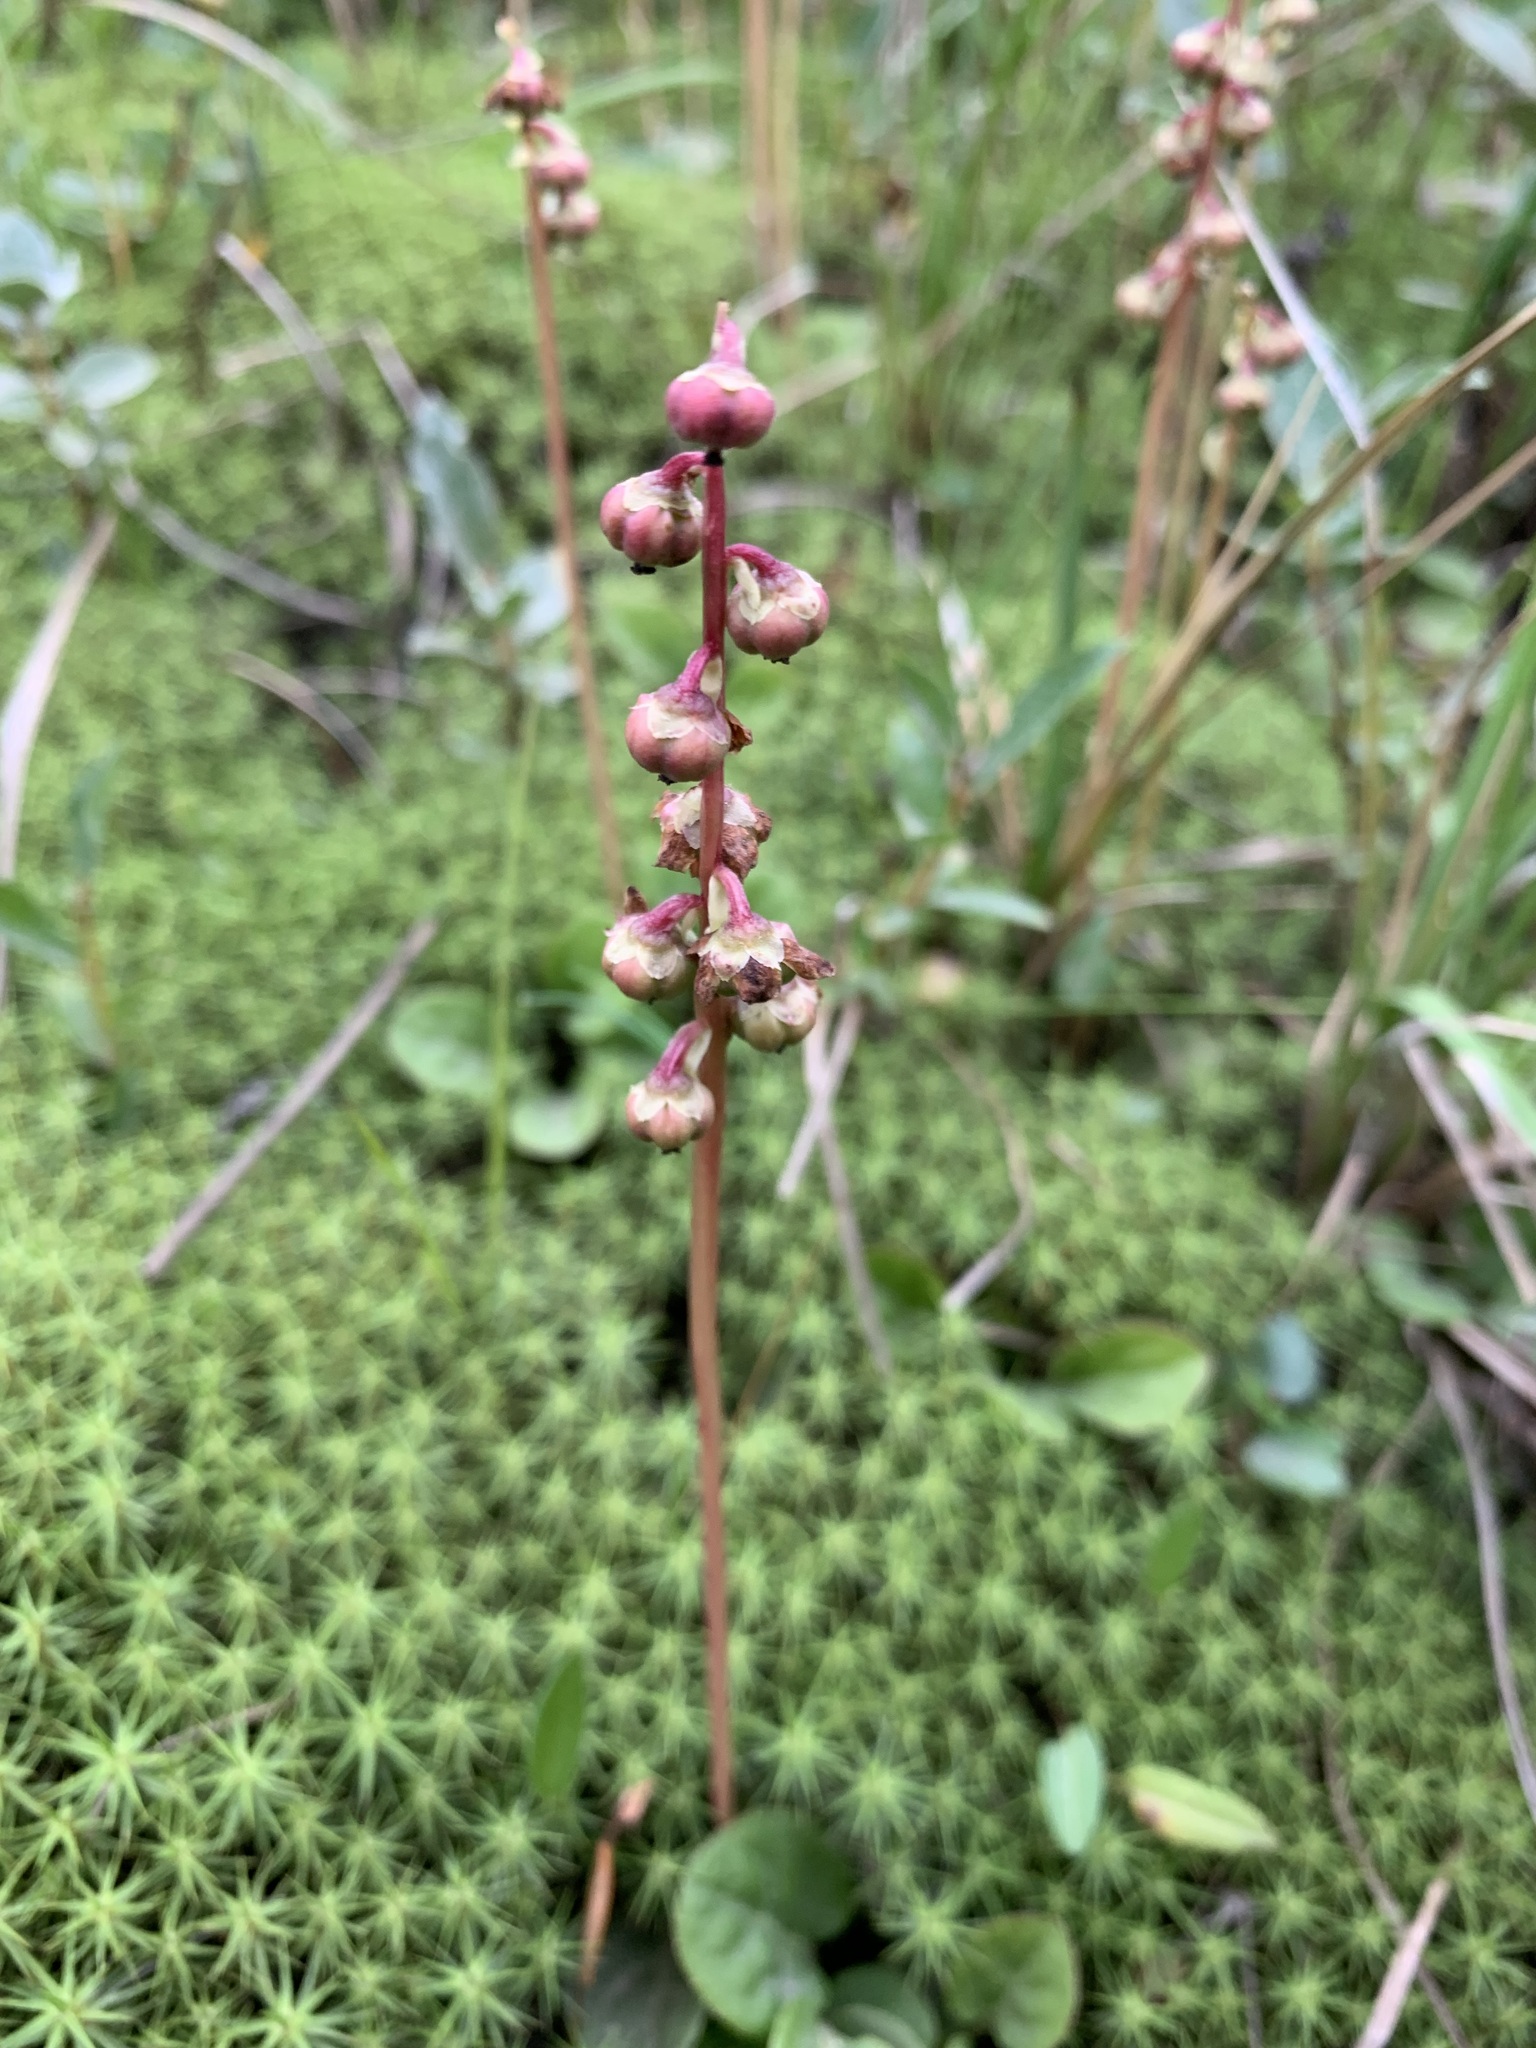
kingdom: Plantae
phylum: Tracheophyta
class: Magnoliopsida
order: Ericales
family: Ericaceae
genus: Pyrola
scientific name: Pyrola grandiflora
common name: Arctic pyrola
